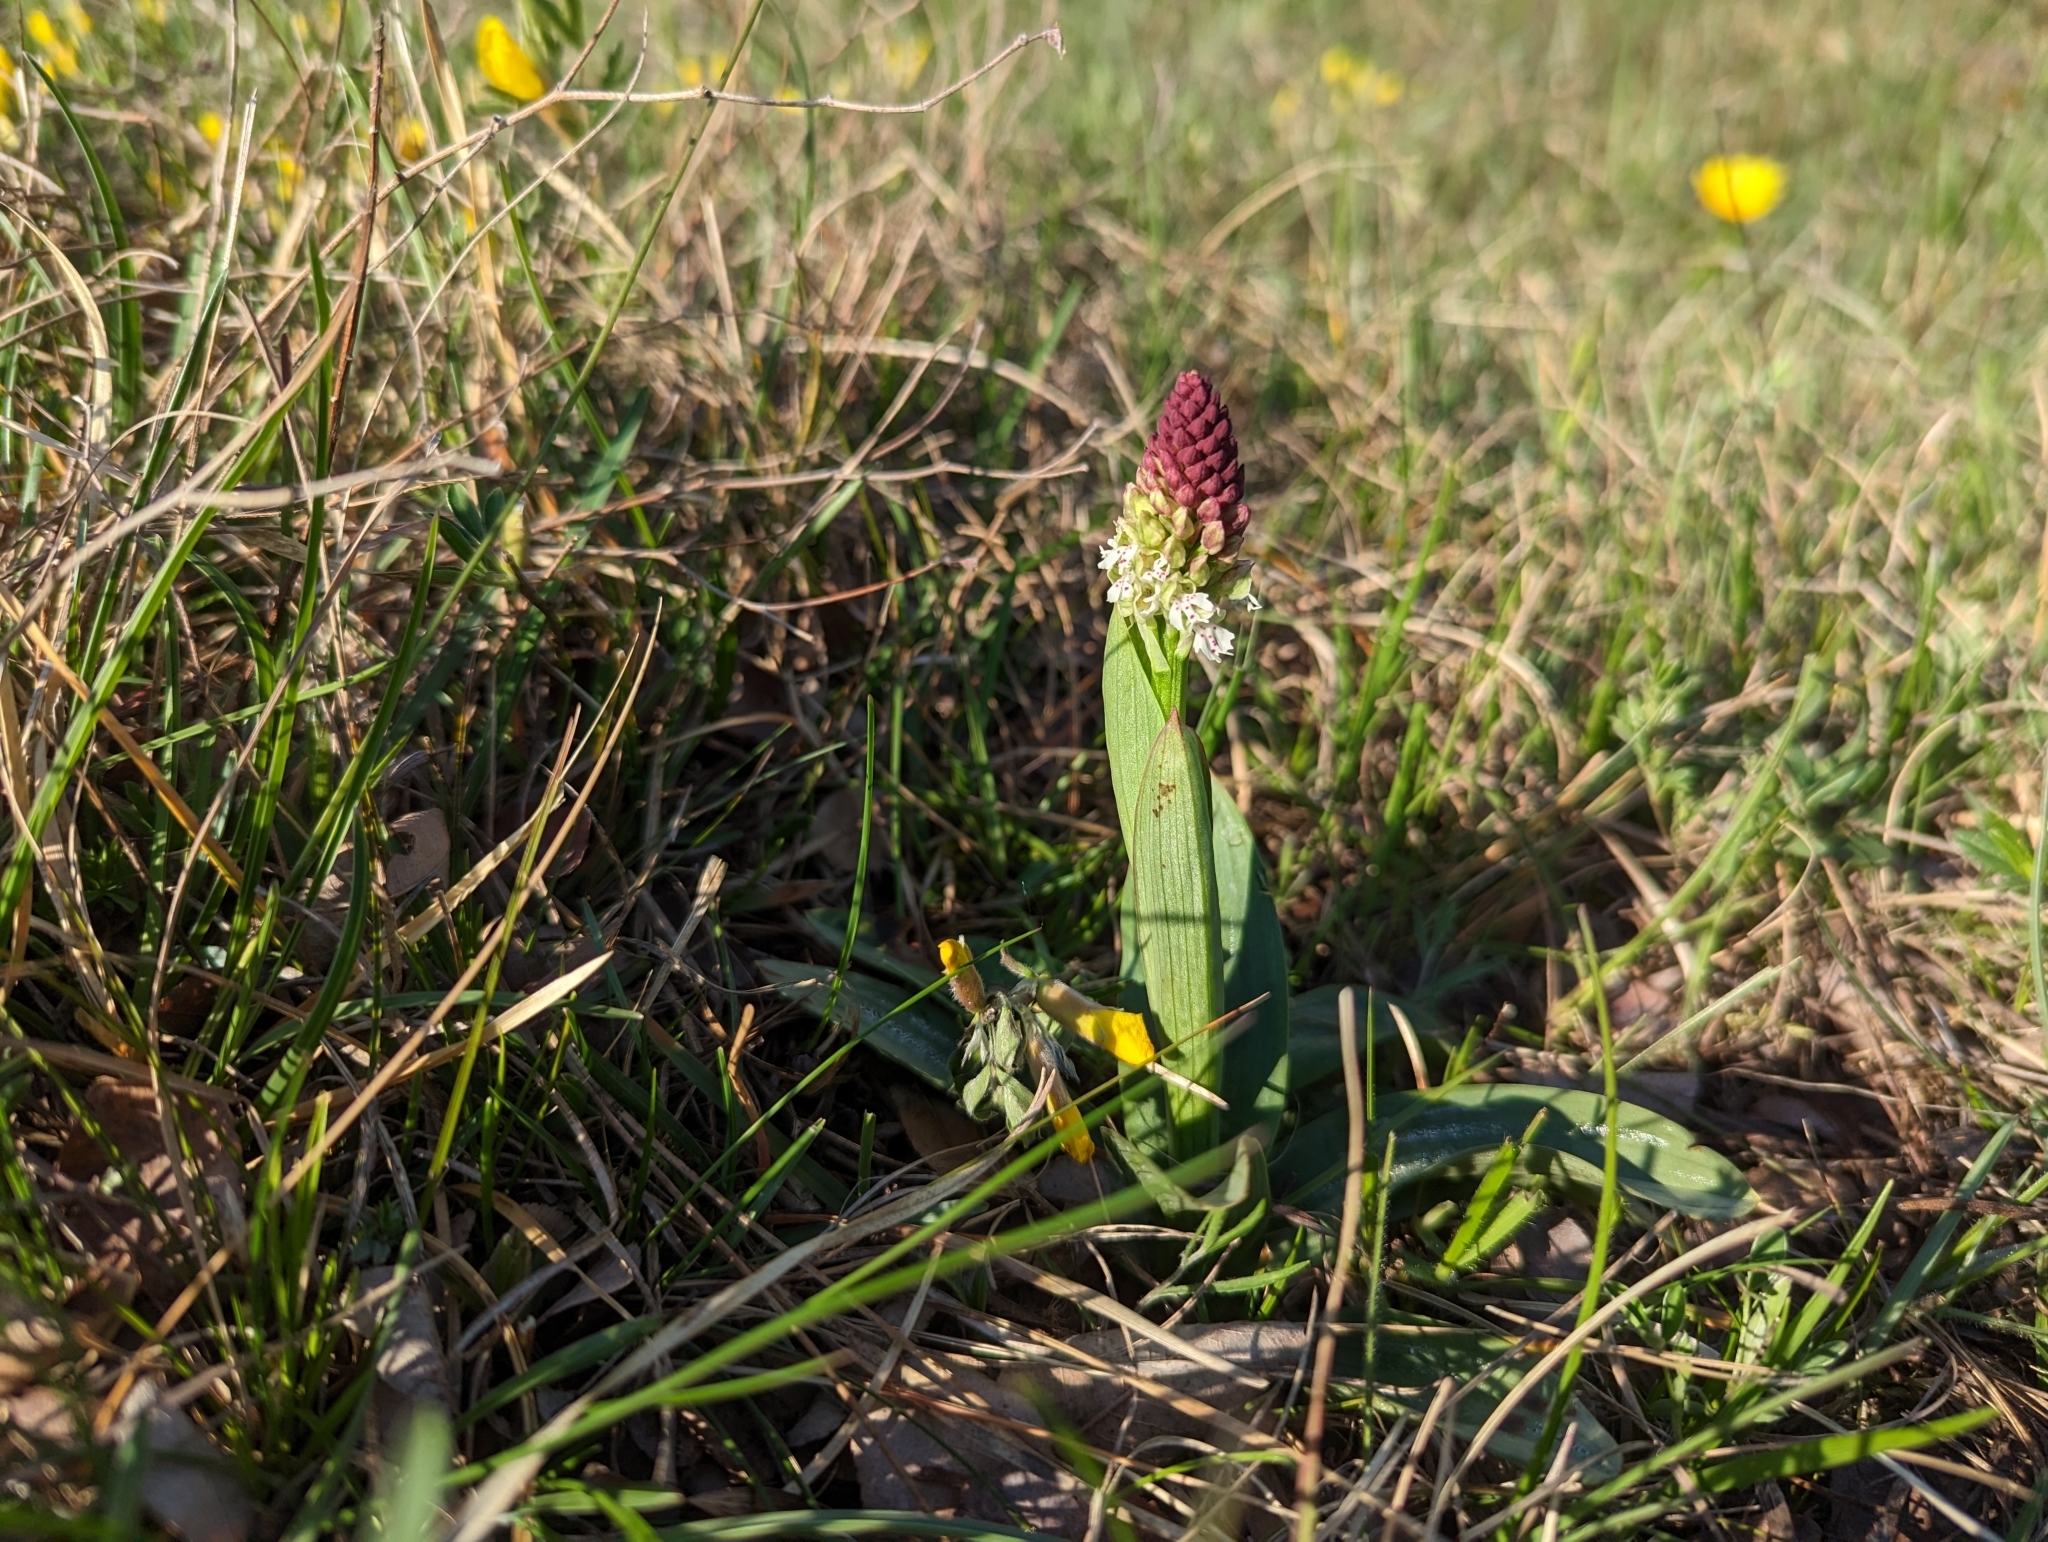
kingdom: Plantae
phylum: Tracheophyta
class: Liliopsida
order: Asparagales
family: Orchidaceae
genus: Neotinea
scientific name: Neotinea ustulata
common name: Burnt orchid
